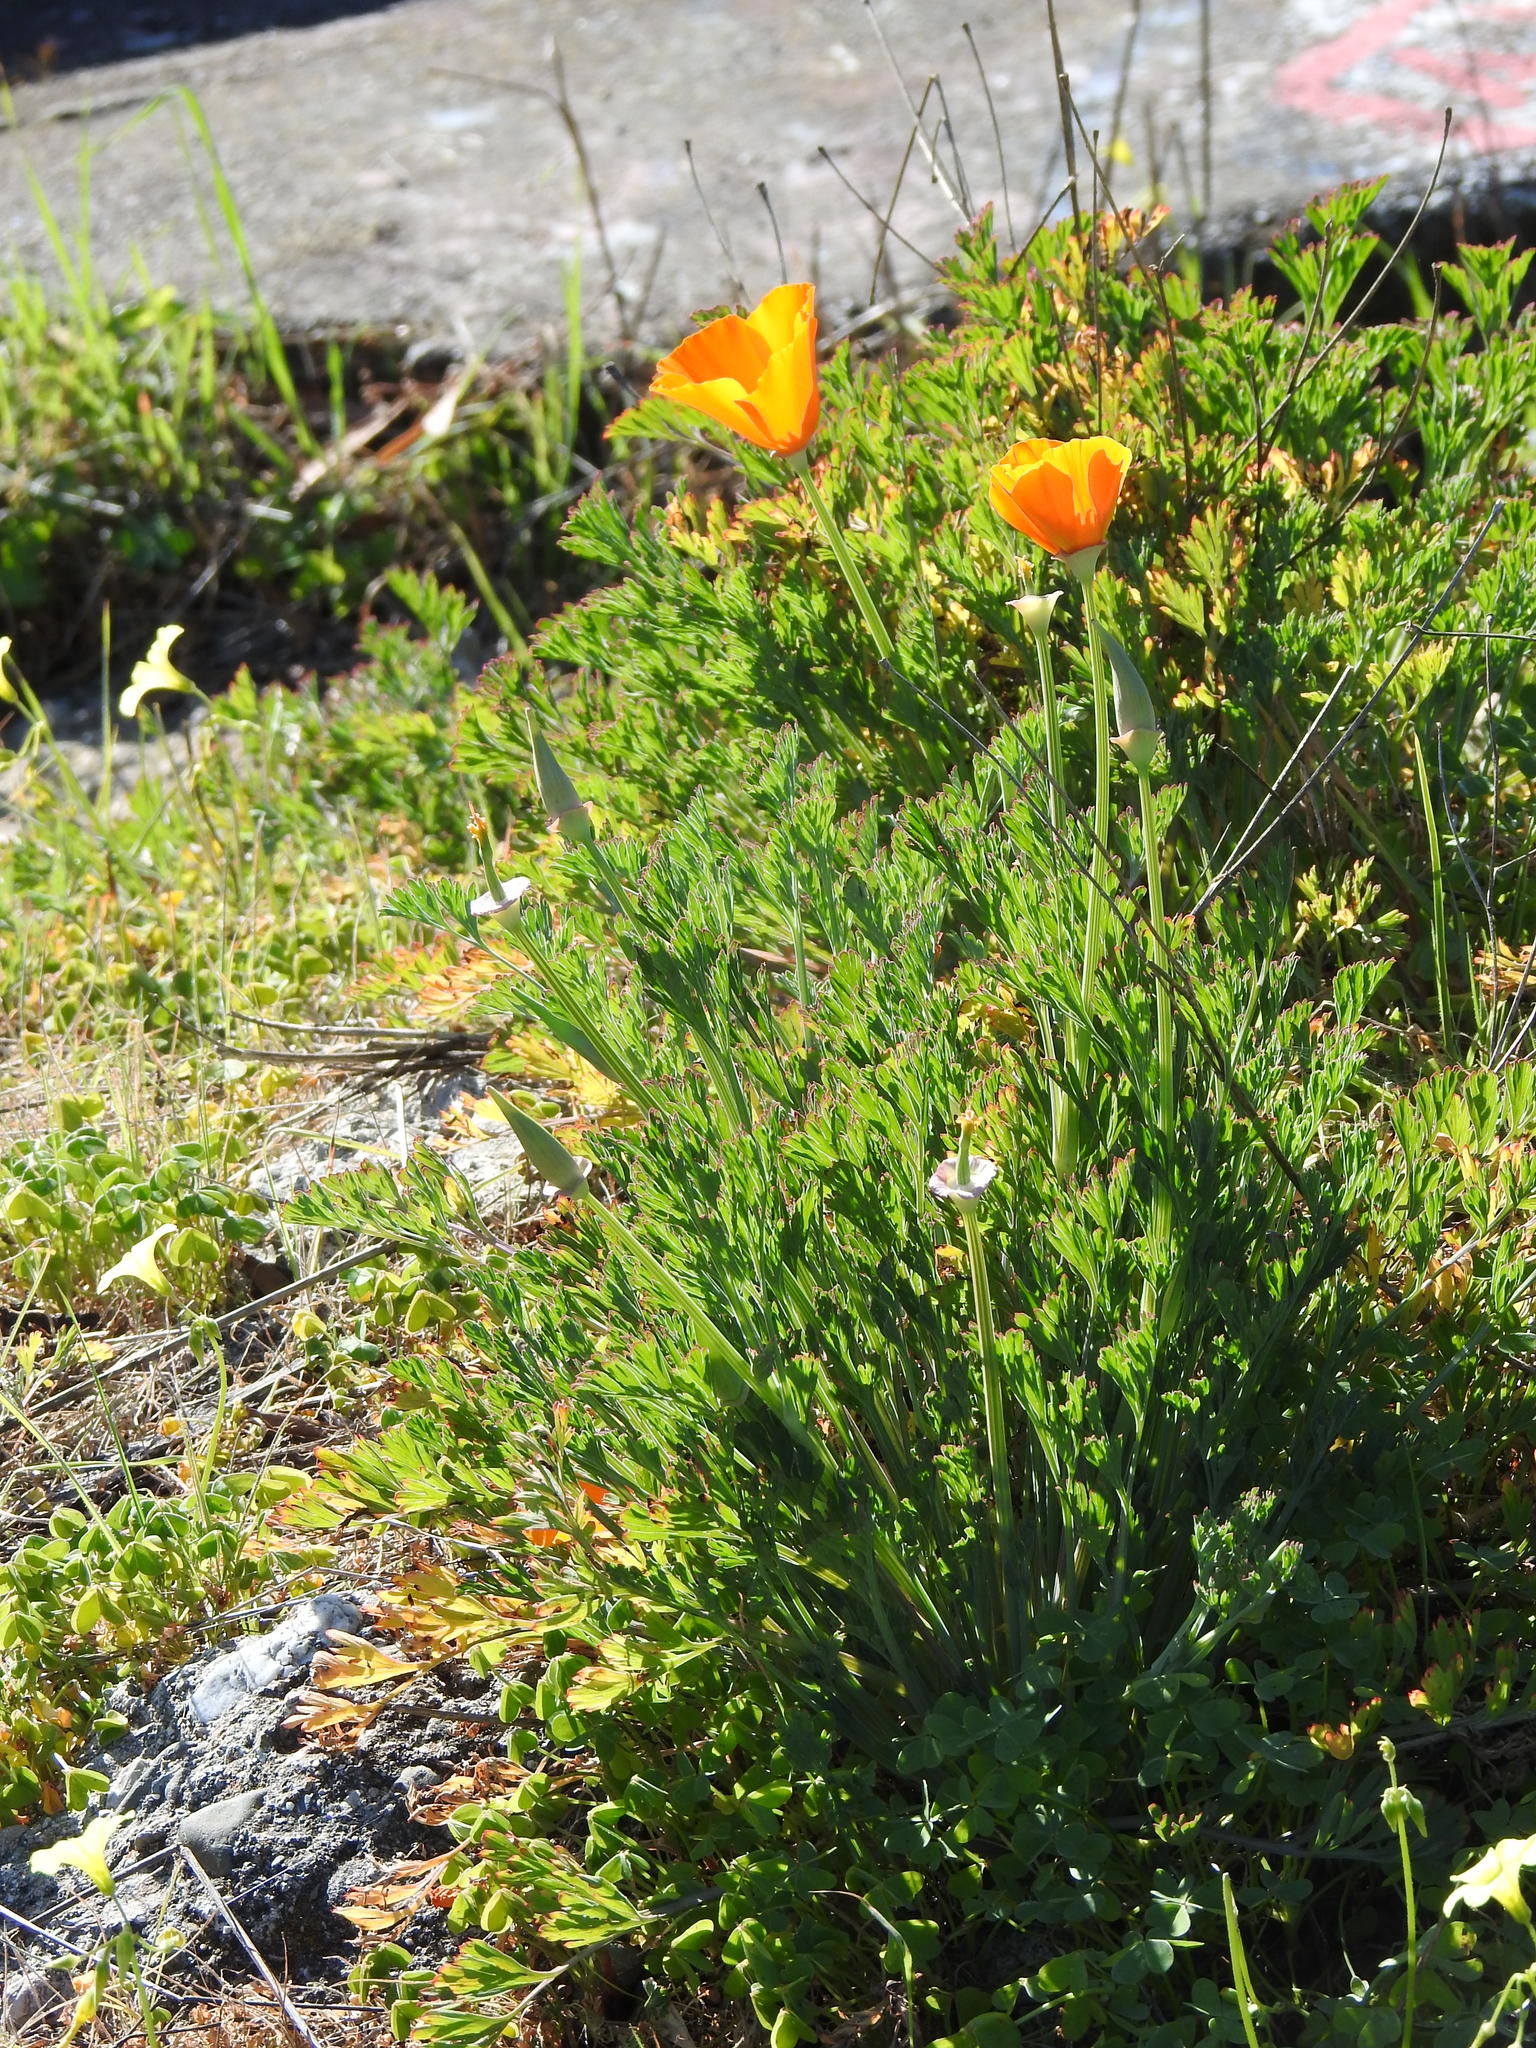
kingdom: Plantae
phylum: Tracheophyta
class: Magnoliopsida
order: Ranunculales
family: Papaveraceae
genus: Eschscholzia
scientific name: Eschscholzia californica
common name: California poppy
